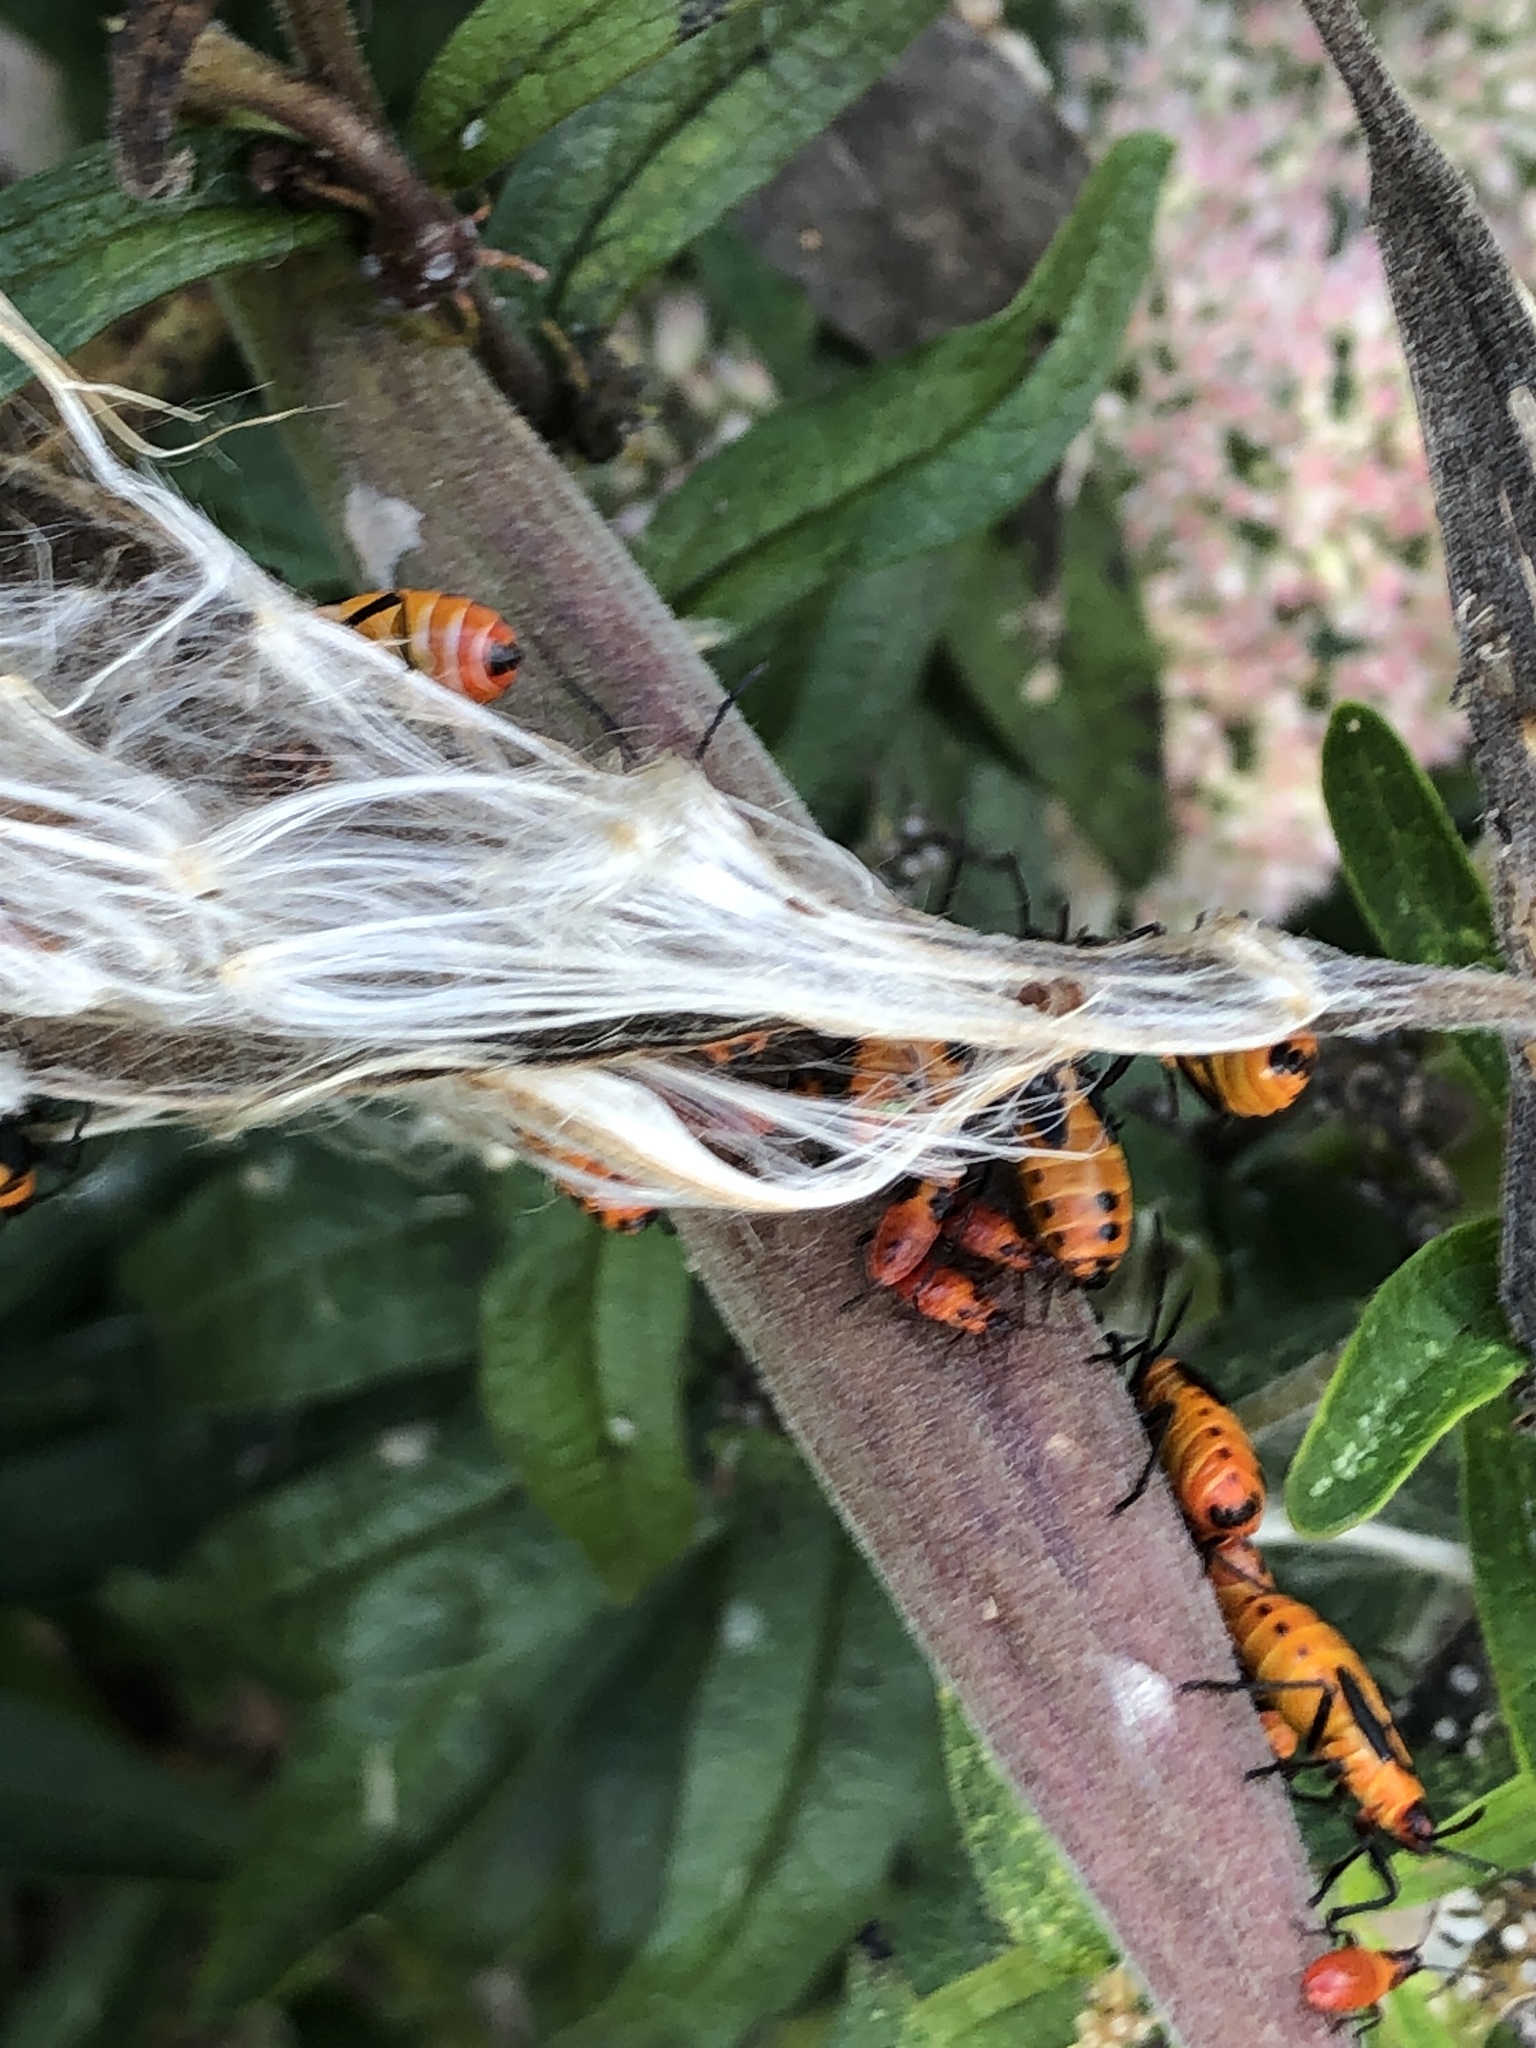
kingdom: Animalia
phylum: Arthropoda
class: Insecta
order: Hemiptera
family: Lygaeidae
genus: Oncopeltus
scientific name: Oncopeltus fasciatus
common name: Large milkweed bug
